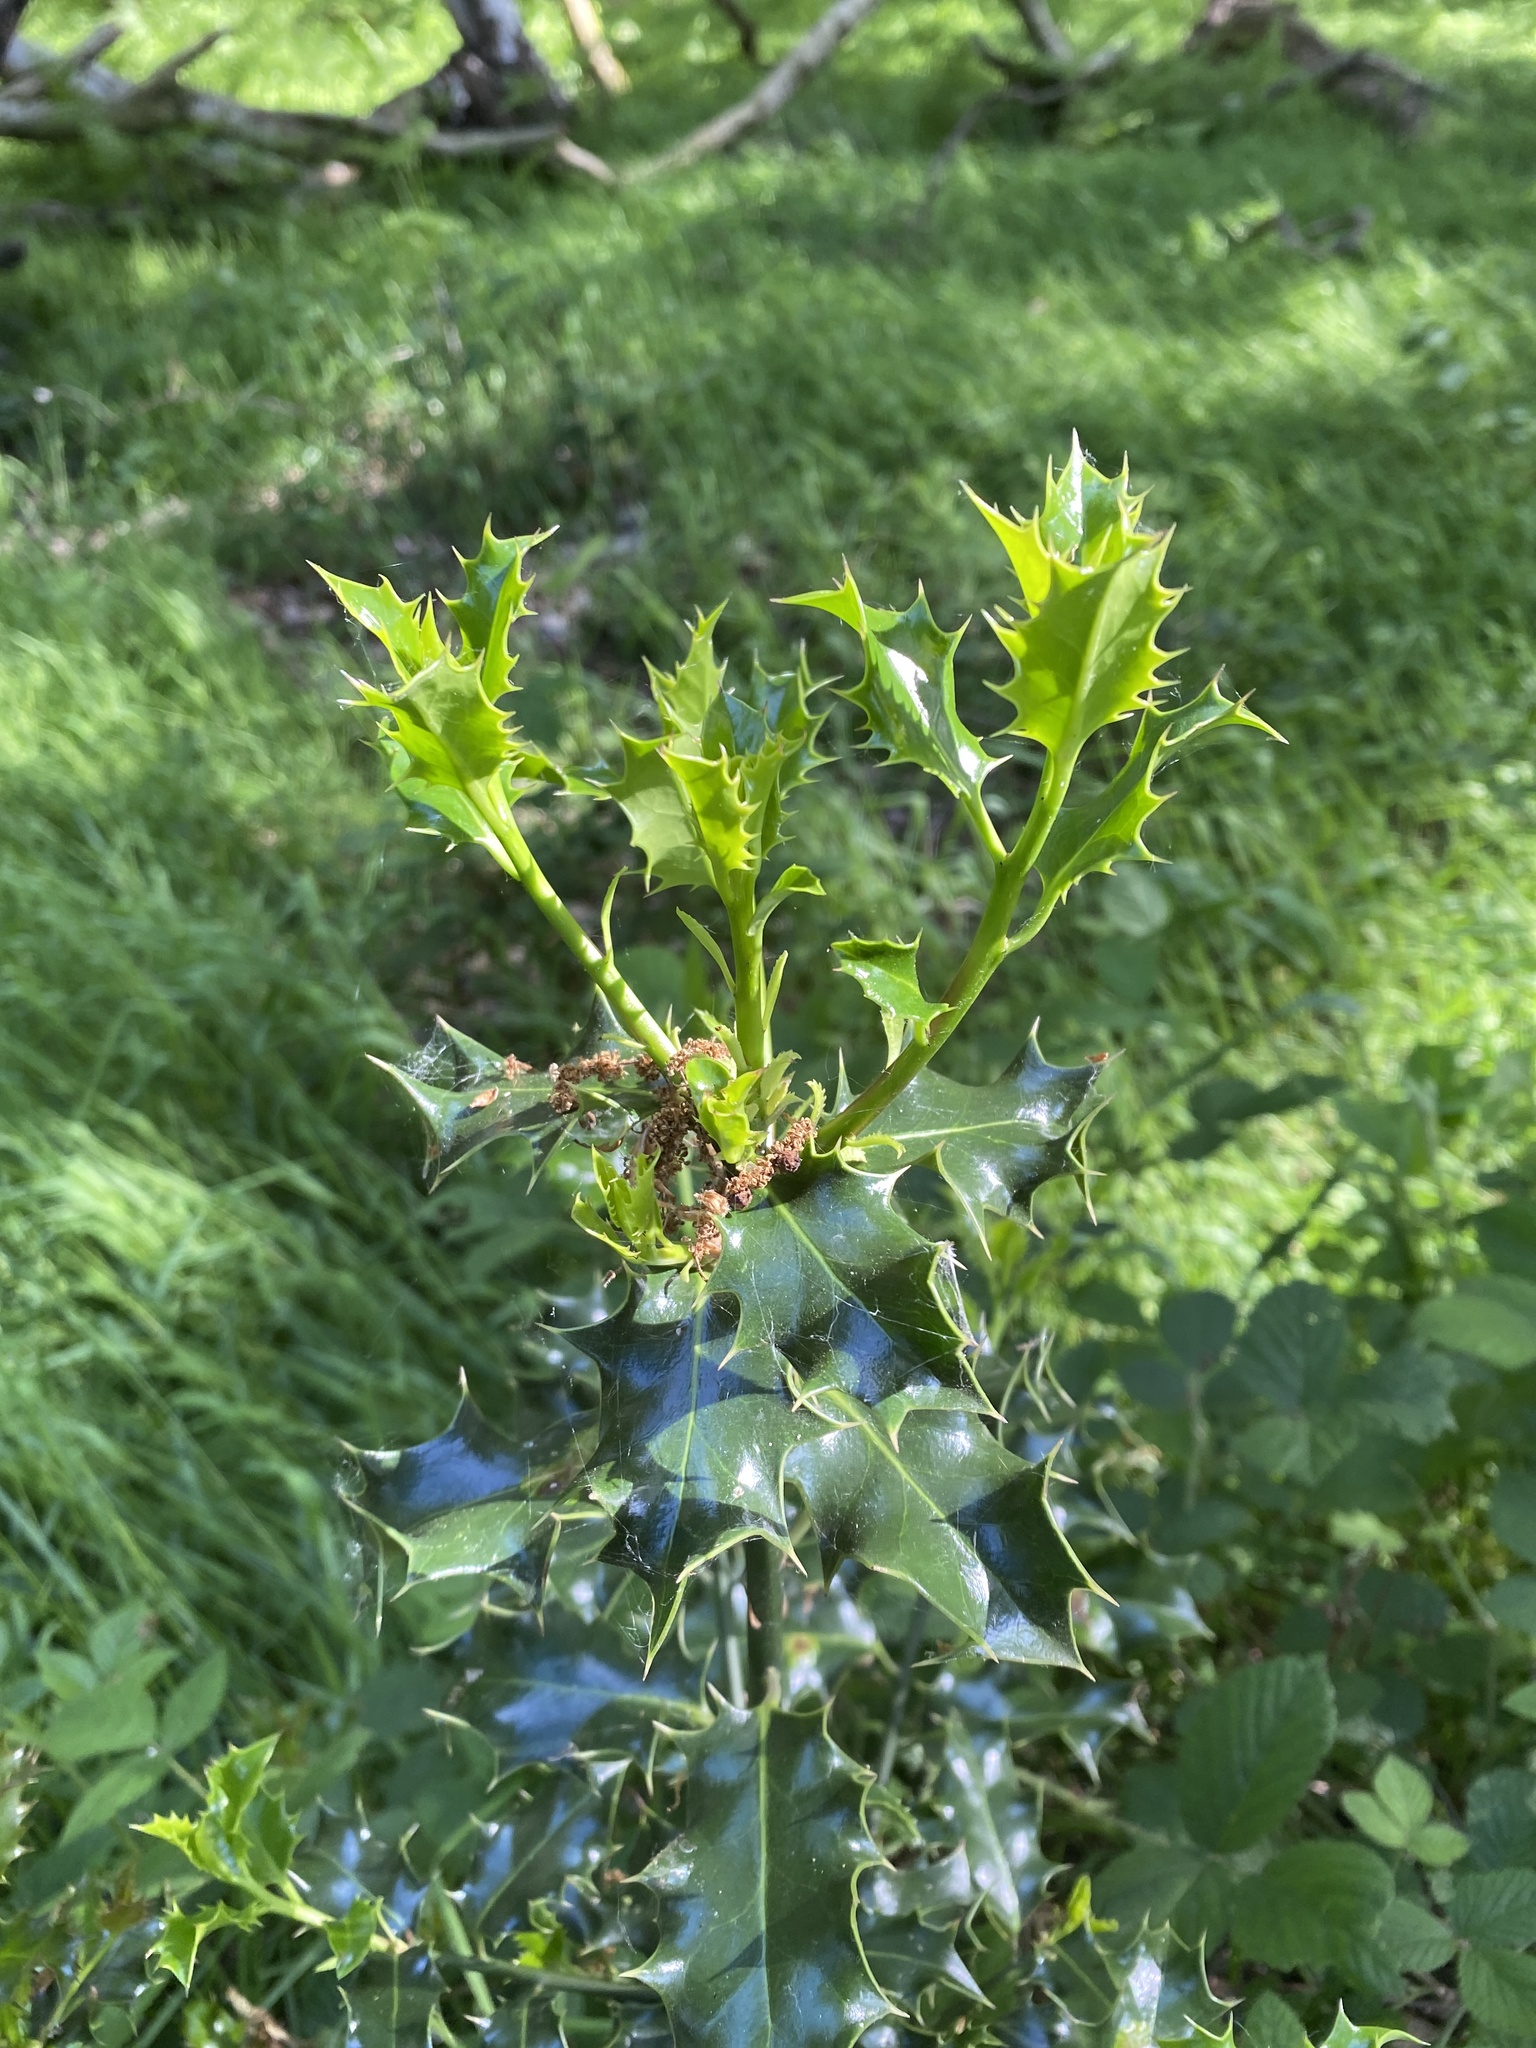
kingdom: Plantae
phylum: Tracheophyta
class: Magnoliopsida
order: Aquifoliales
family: Aquifoliaceae
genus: Ilex
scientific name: Ilex aquifolium
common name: English holly
